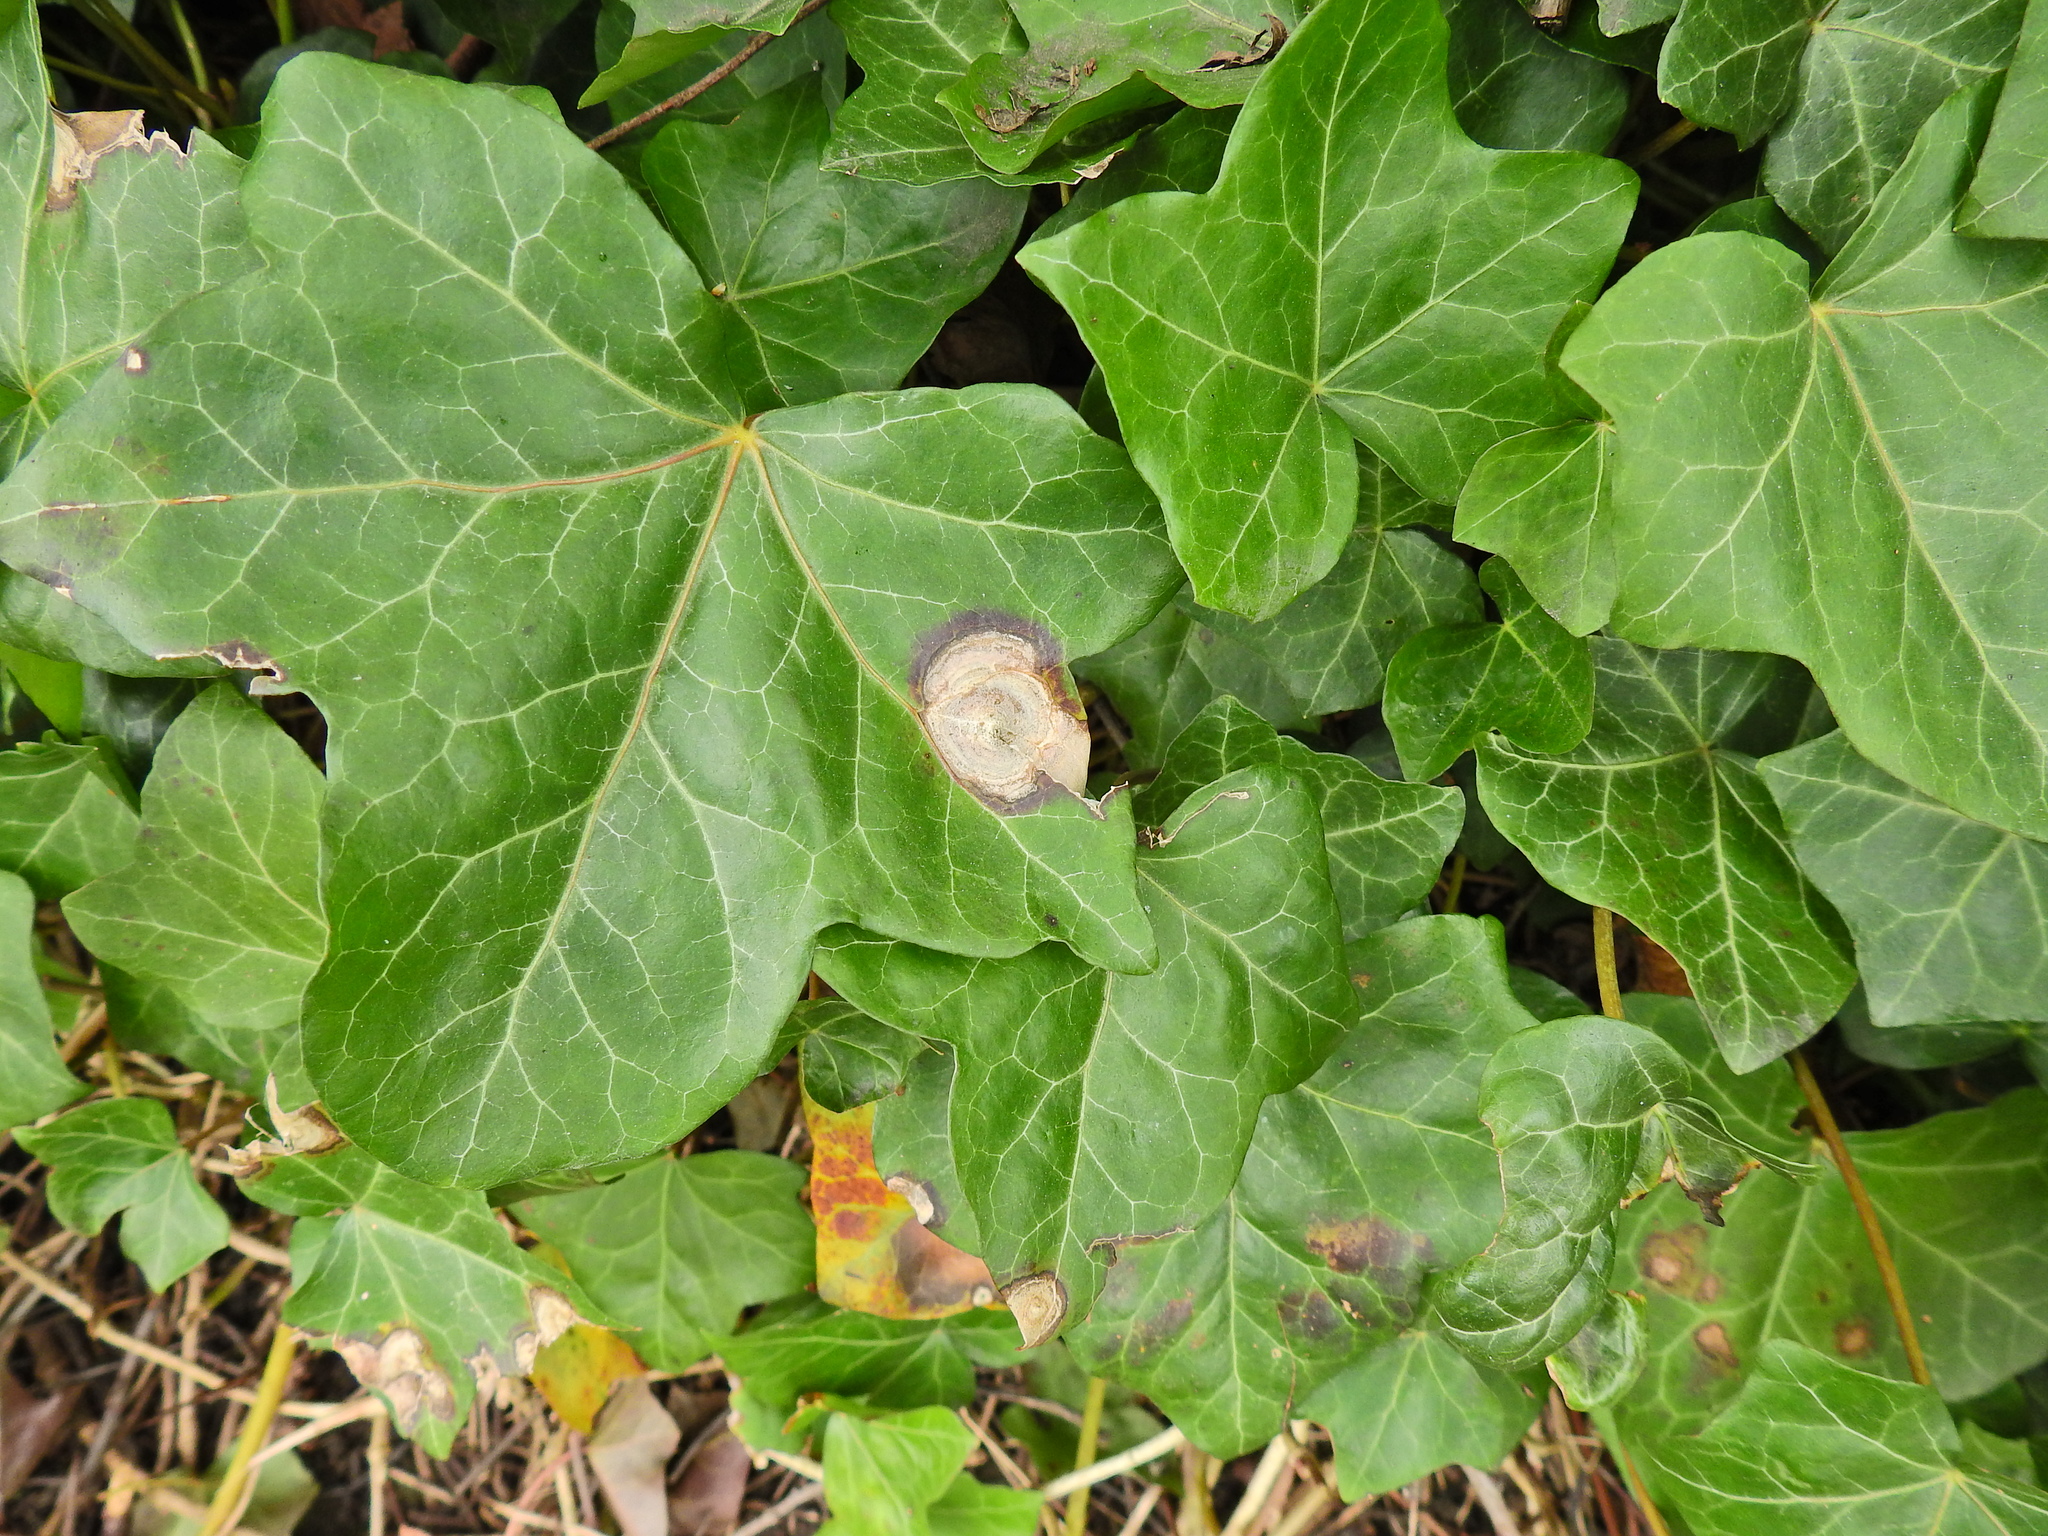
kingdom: Fungi
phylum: Ascomycota
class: Dothideomycetes
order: Pleosporales
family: Didymellaceae
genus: Boeremia
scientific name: Boeremia hedericola
